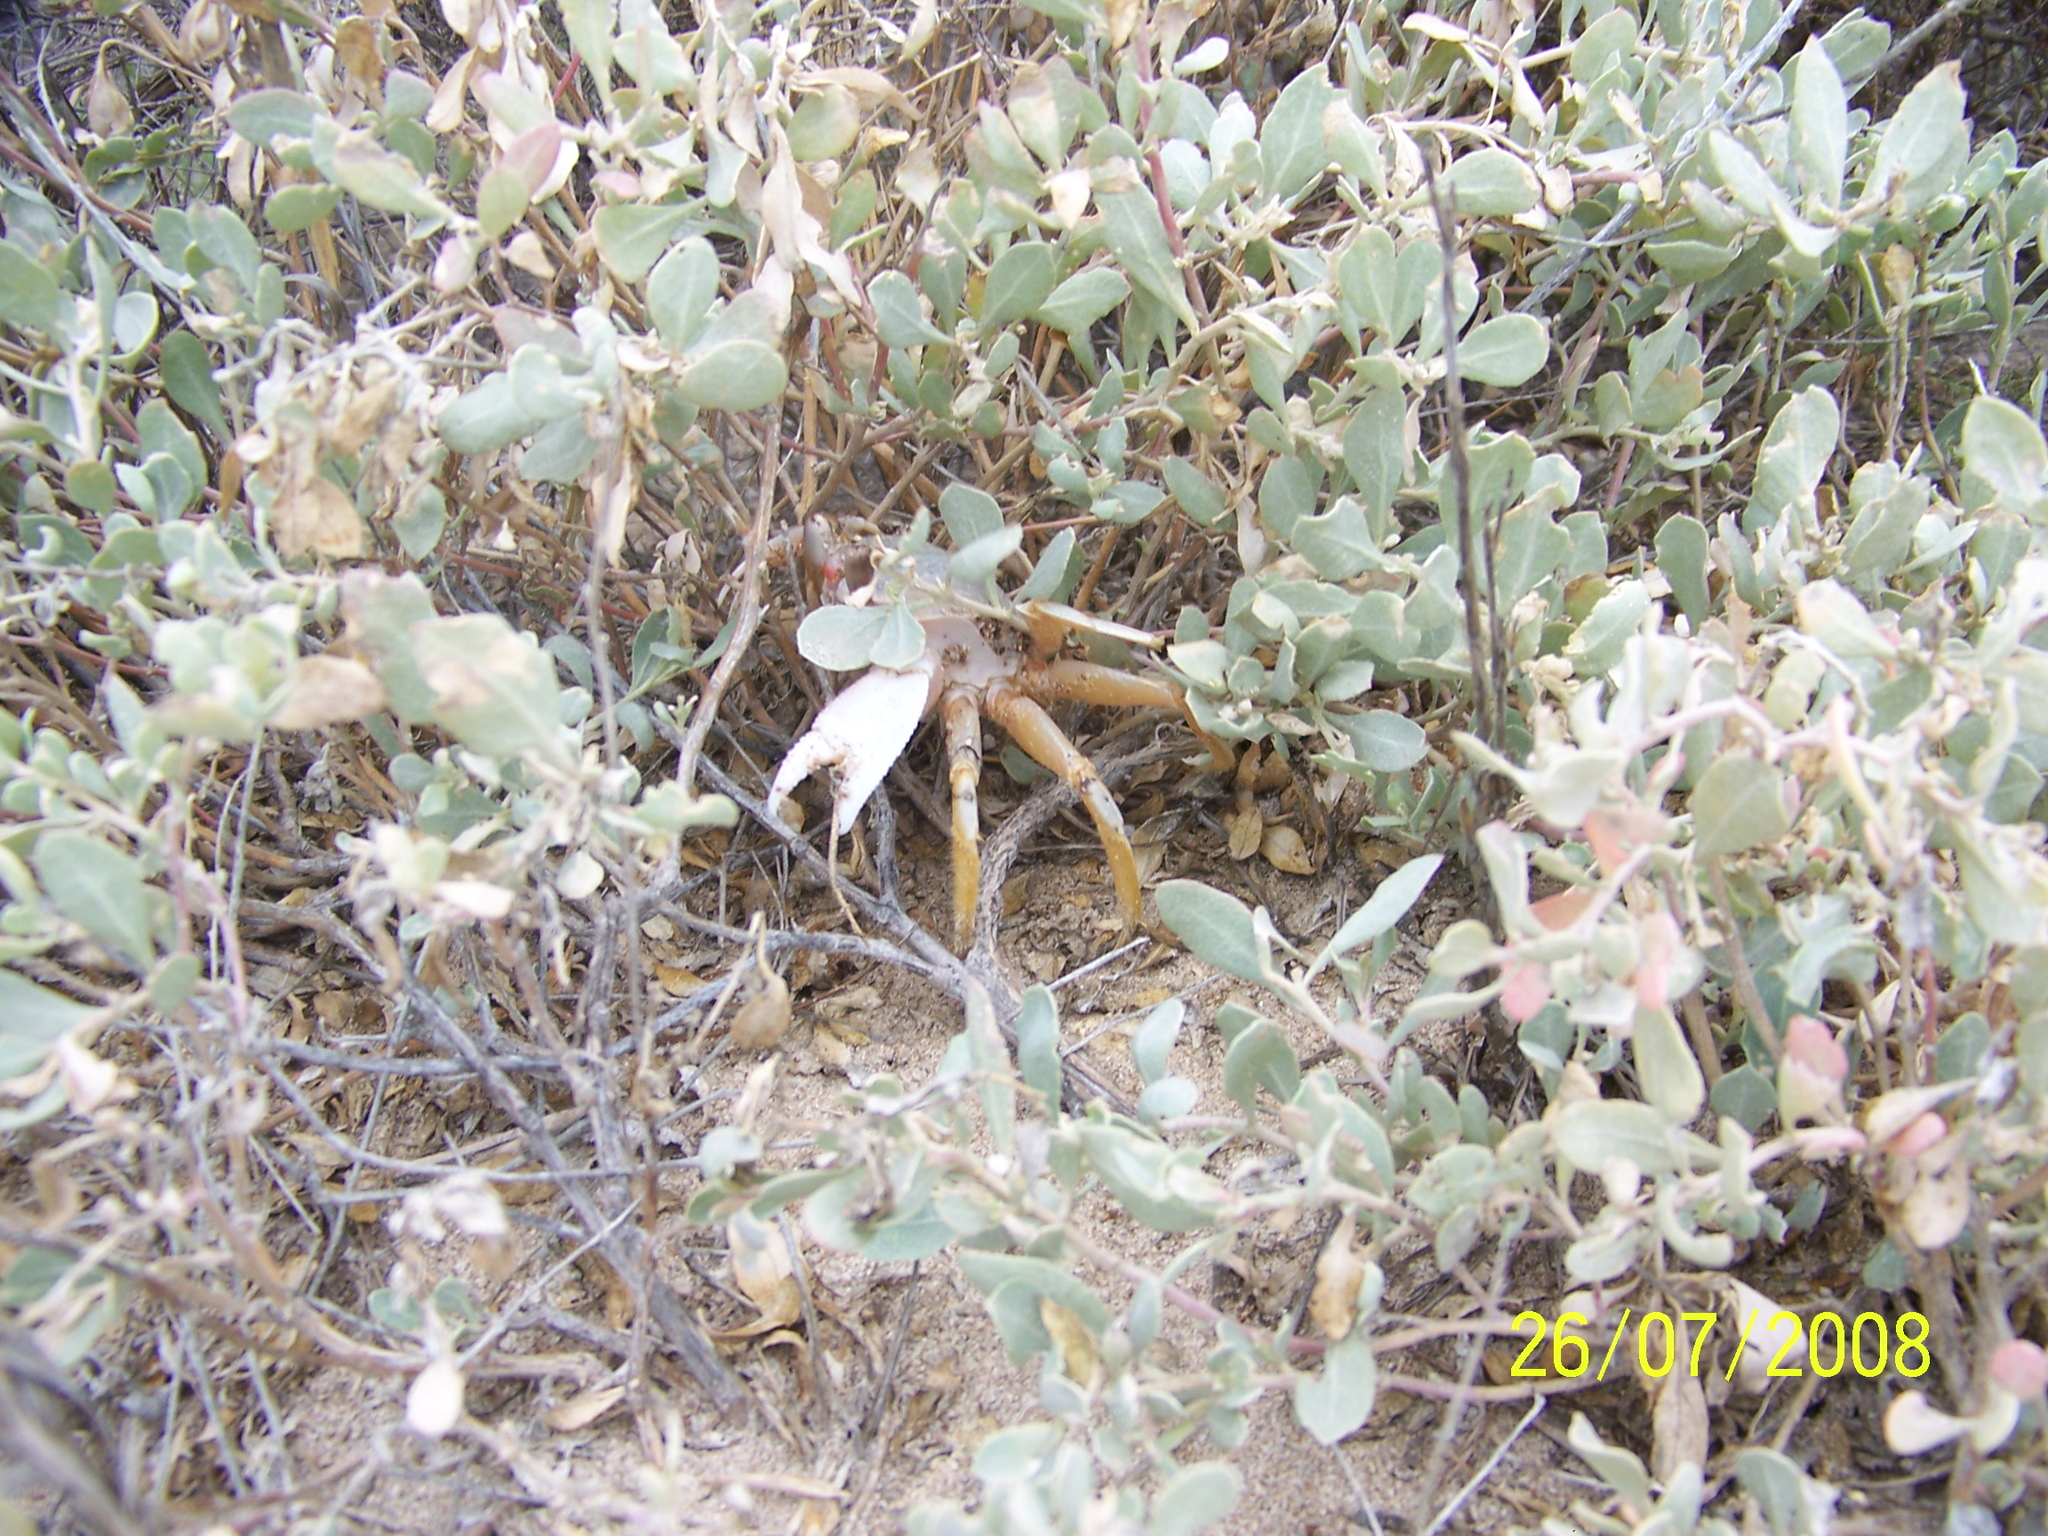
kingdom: Animalia
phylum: Arthropoda
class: Malacostraca
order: Decapoda
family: Ocypodidae
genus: Ocypode
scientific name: Ocypode occidentalis
